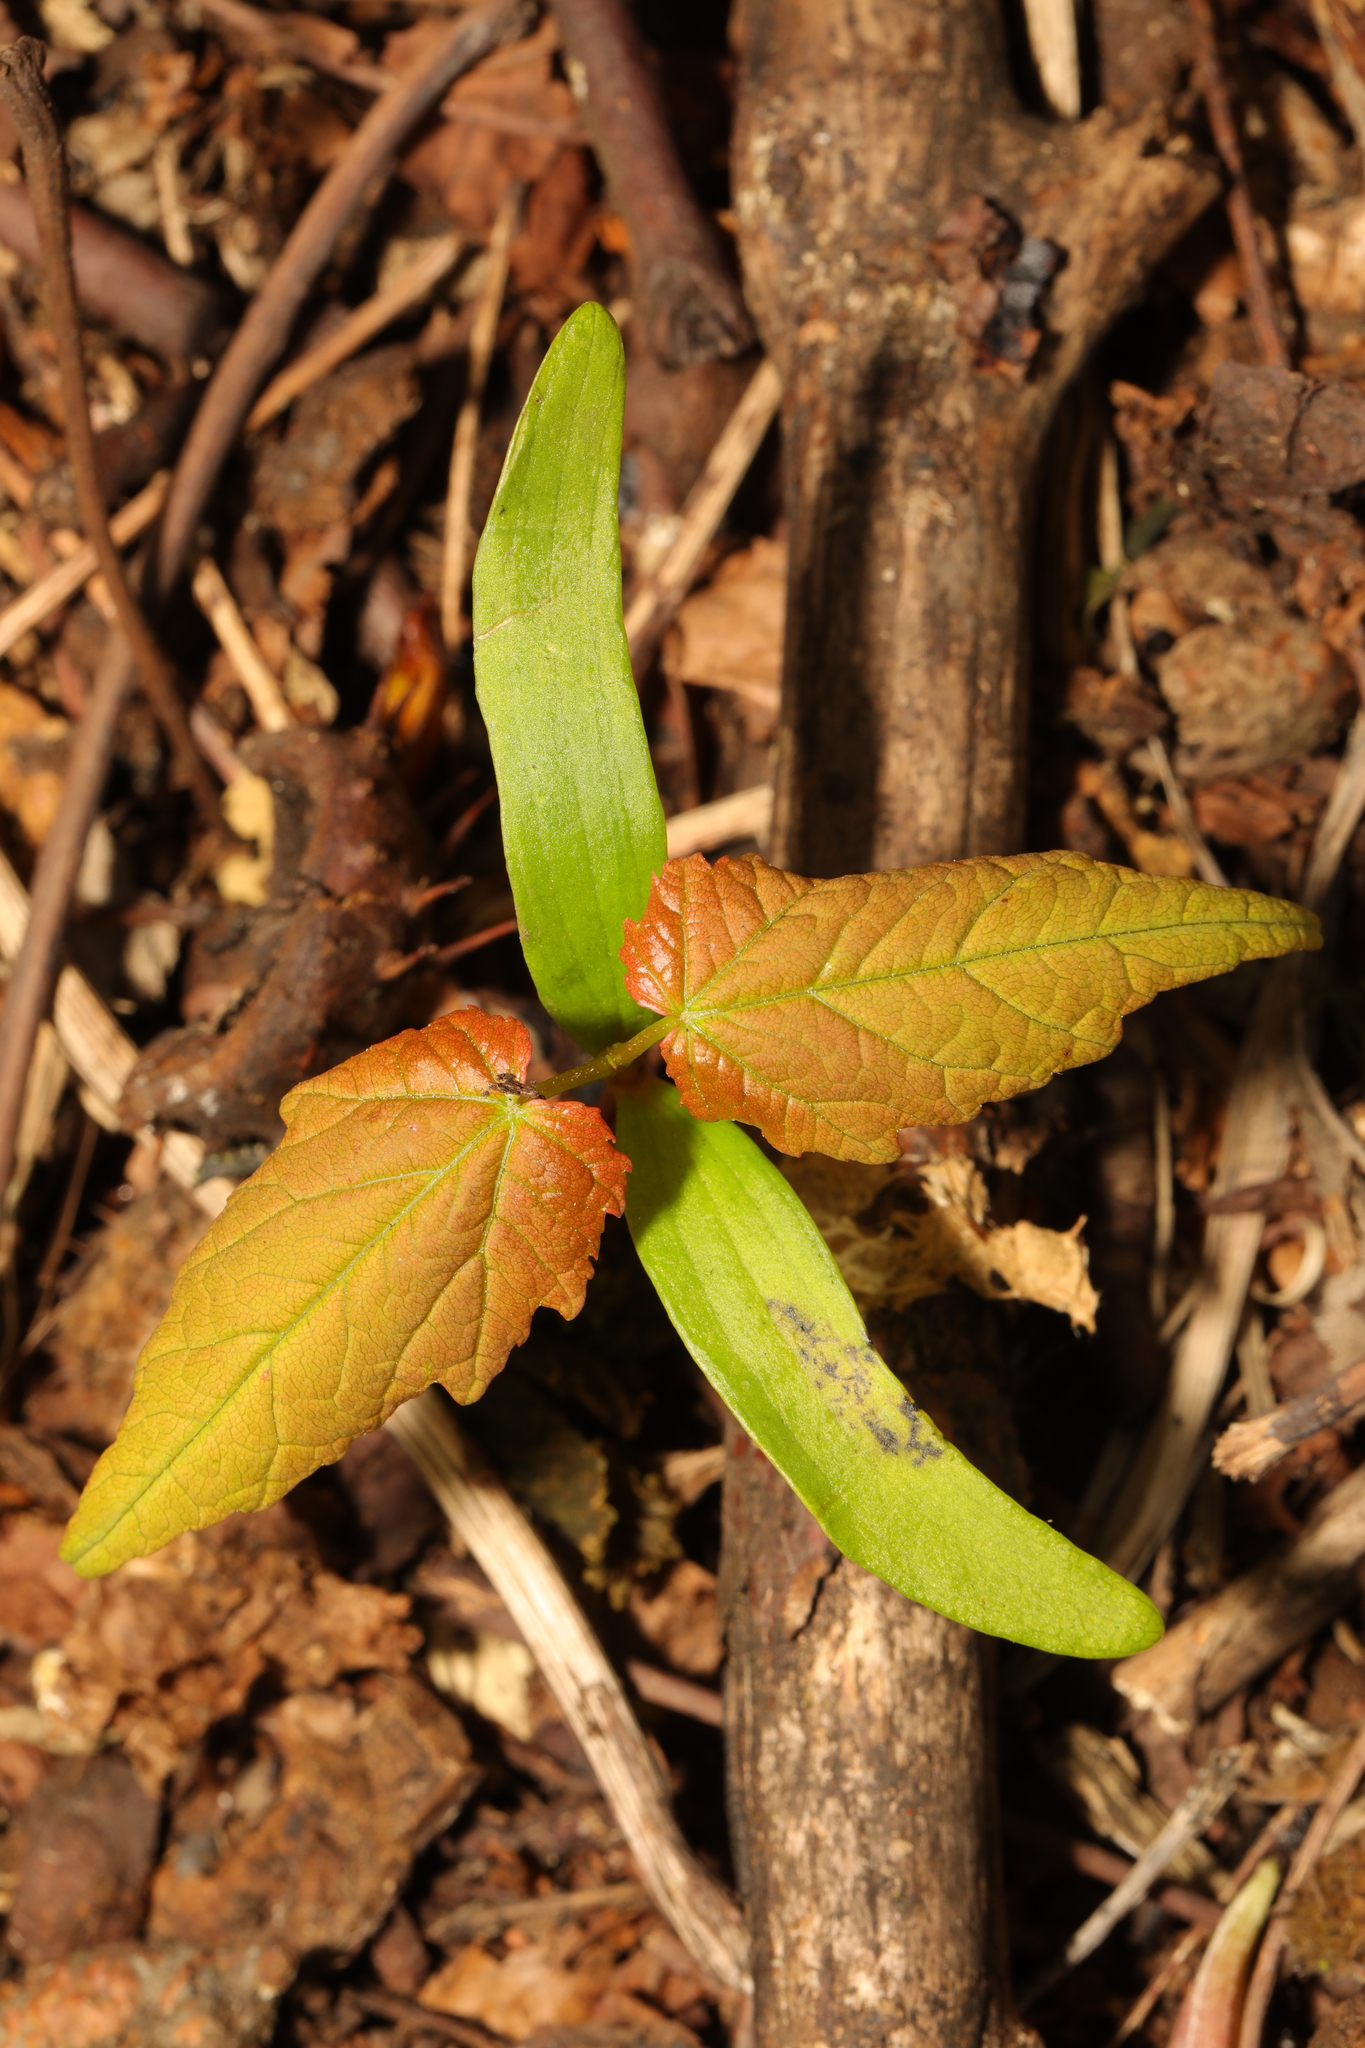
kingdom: Plantae
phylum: Tracheophyta
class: Magnoliopsida
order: Sapindales
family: Sapindaceae
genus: Acer
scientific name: Acer pseudoplatanus
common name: Sycamore
